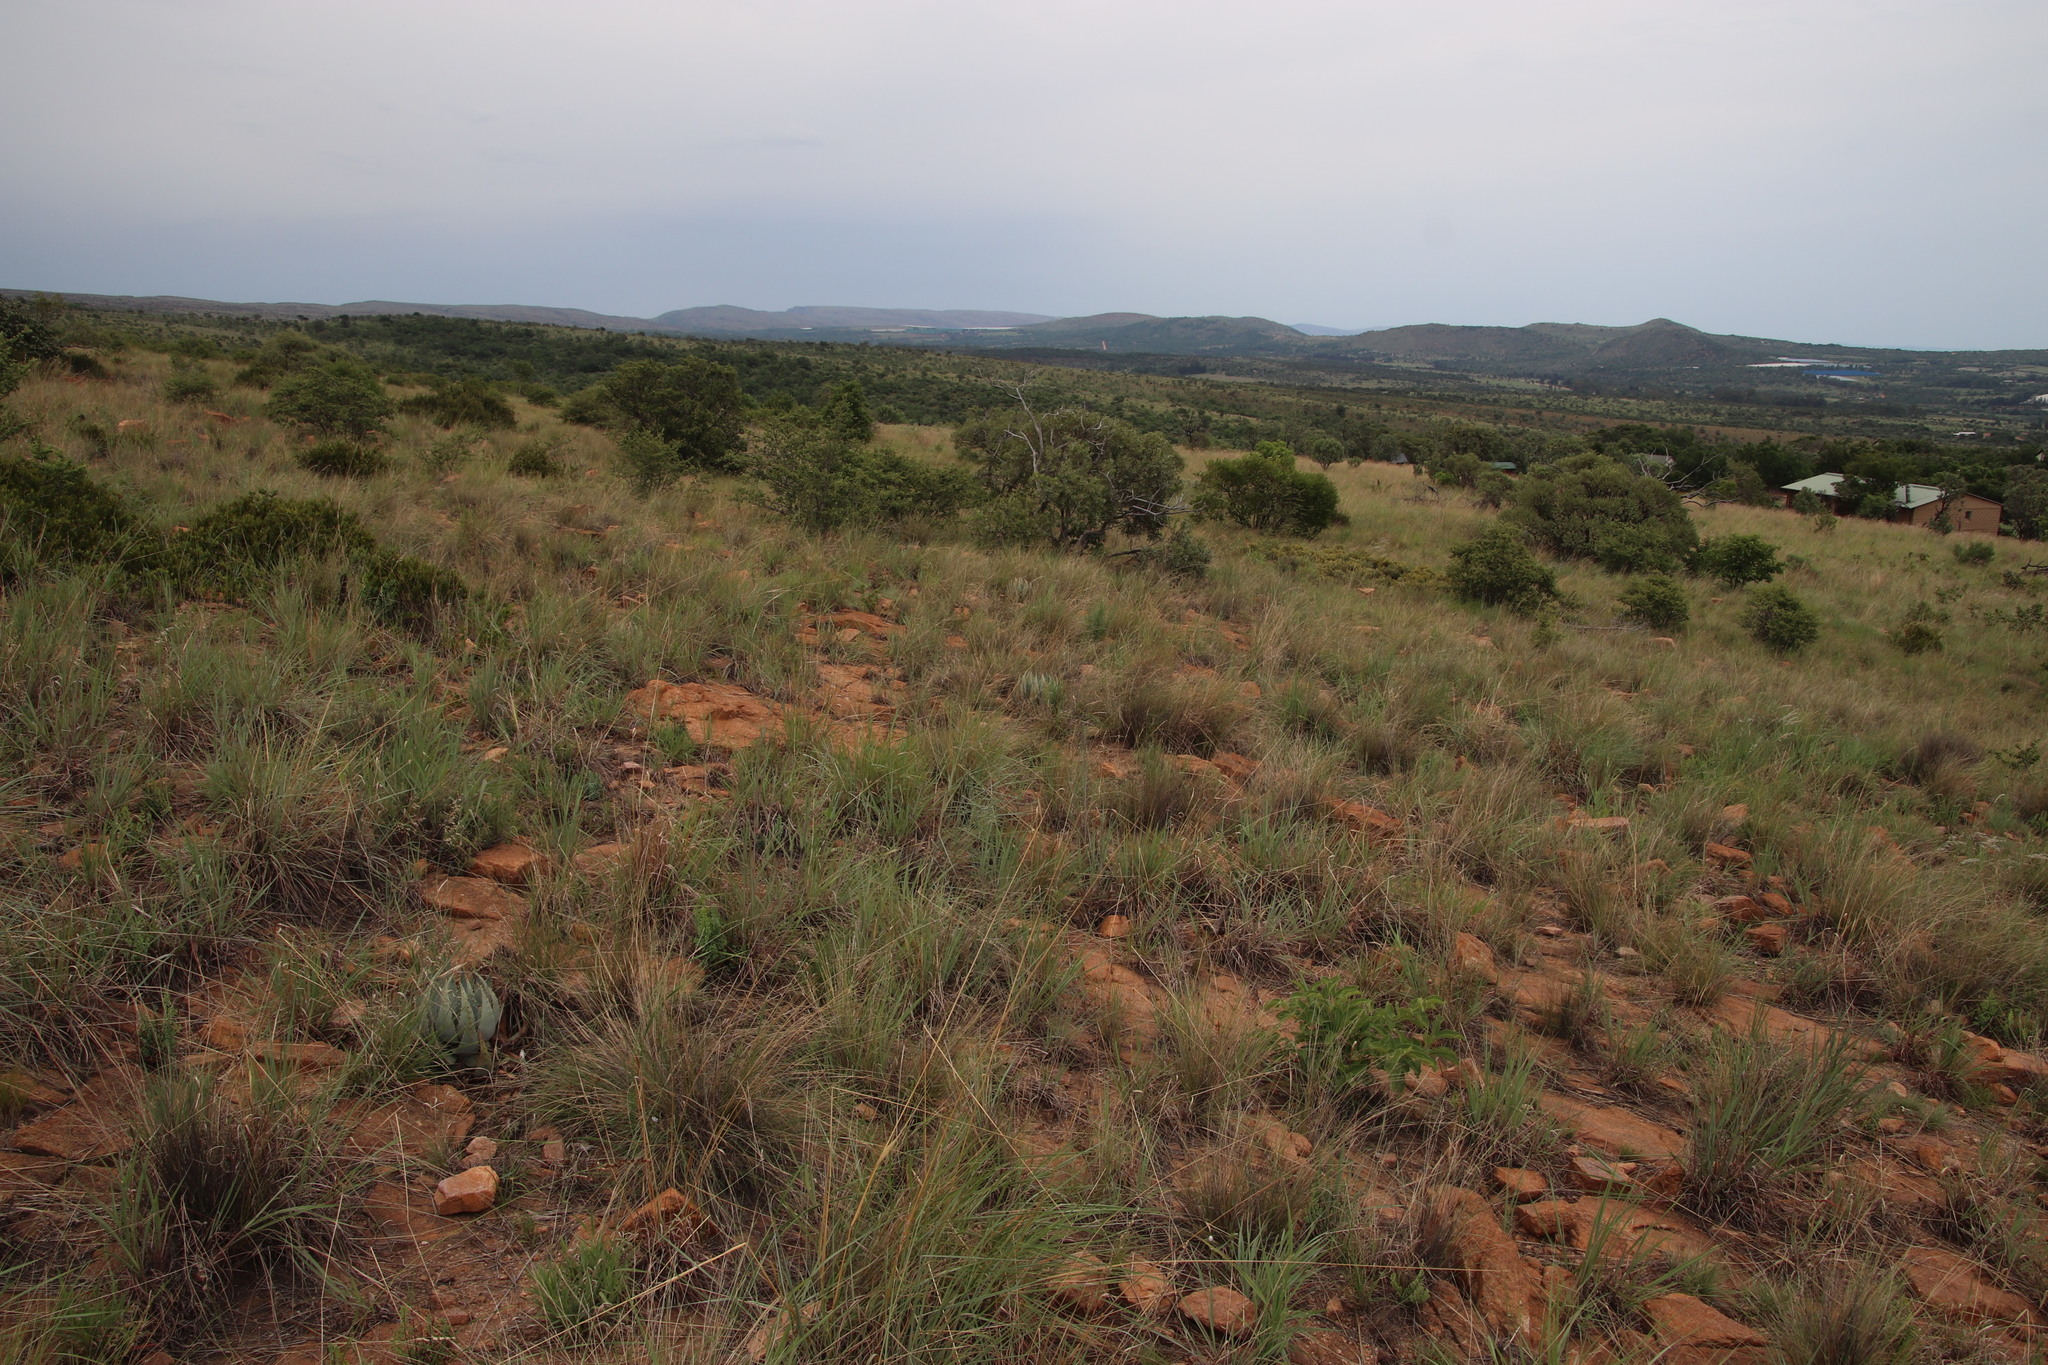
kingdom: Plantae
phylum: Tracheophyta
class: Liliopsida
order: Asparagales
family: Asphodelaceae
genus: Aloe
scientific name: Aloe peglerae
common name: Red-hot poker
